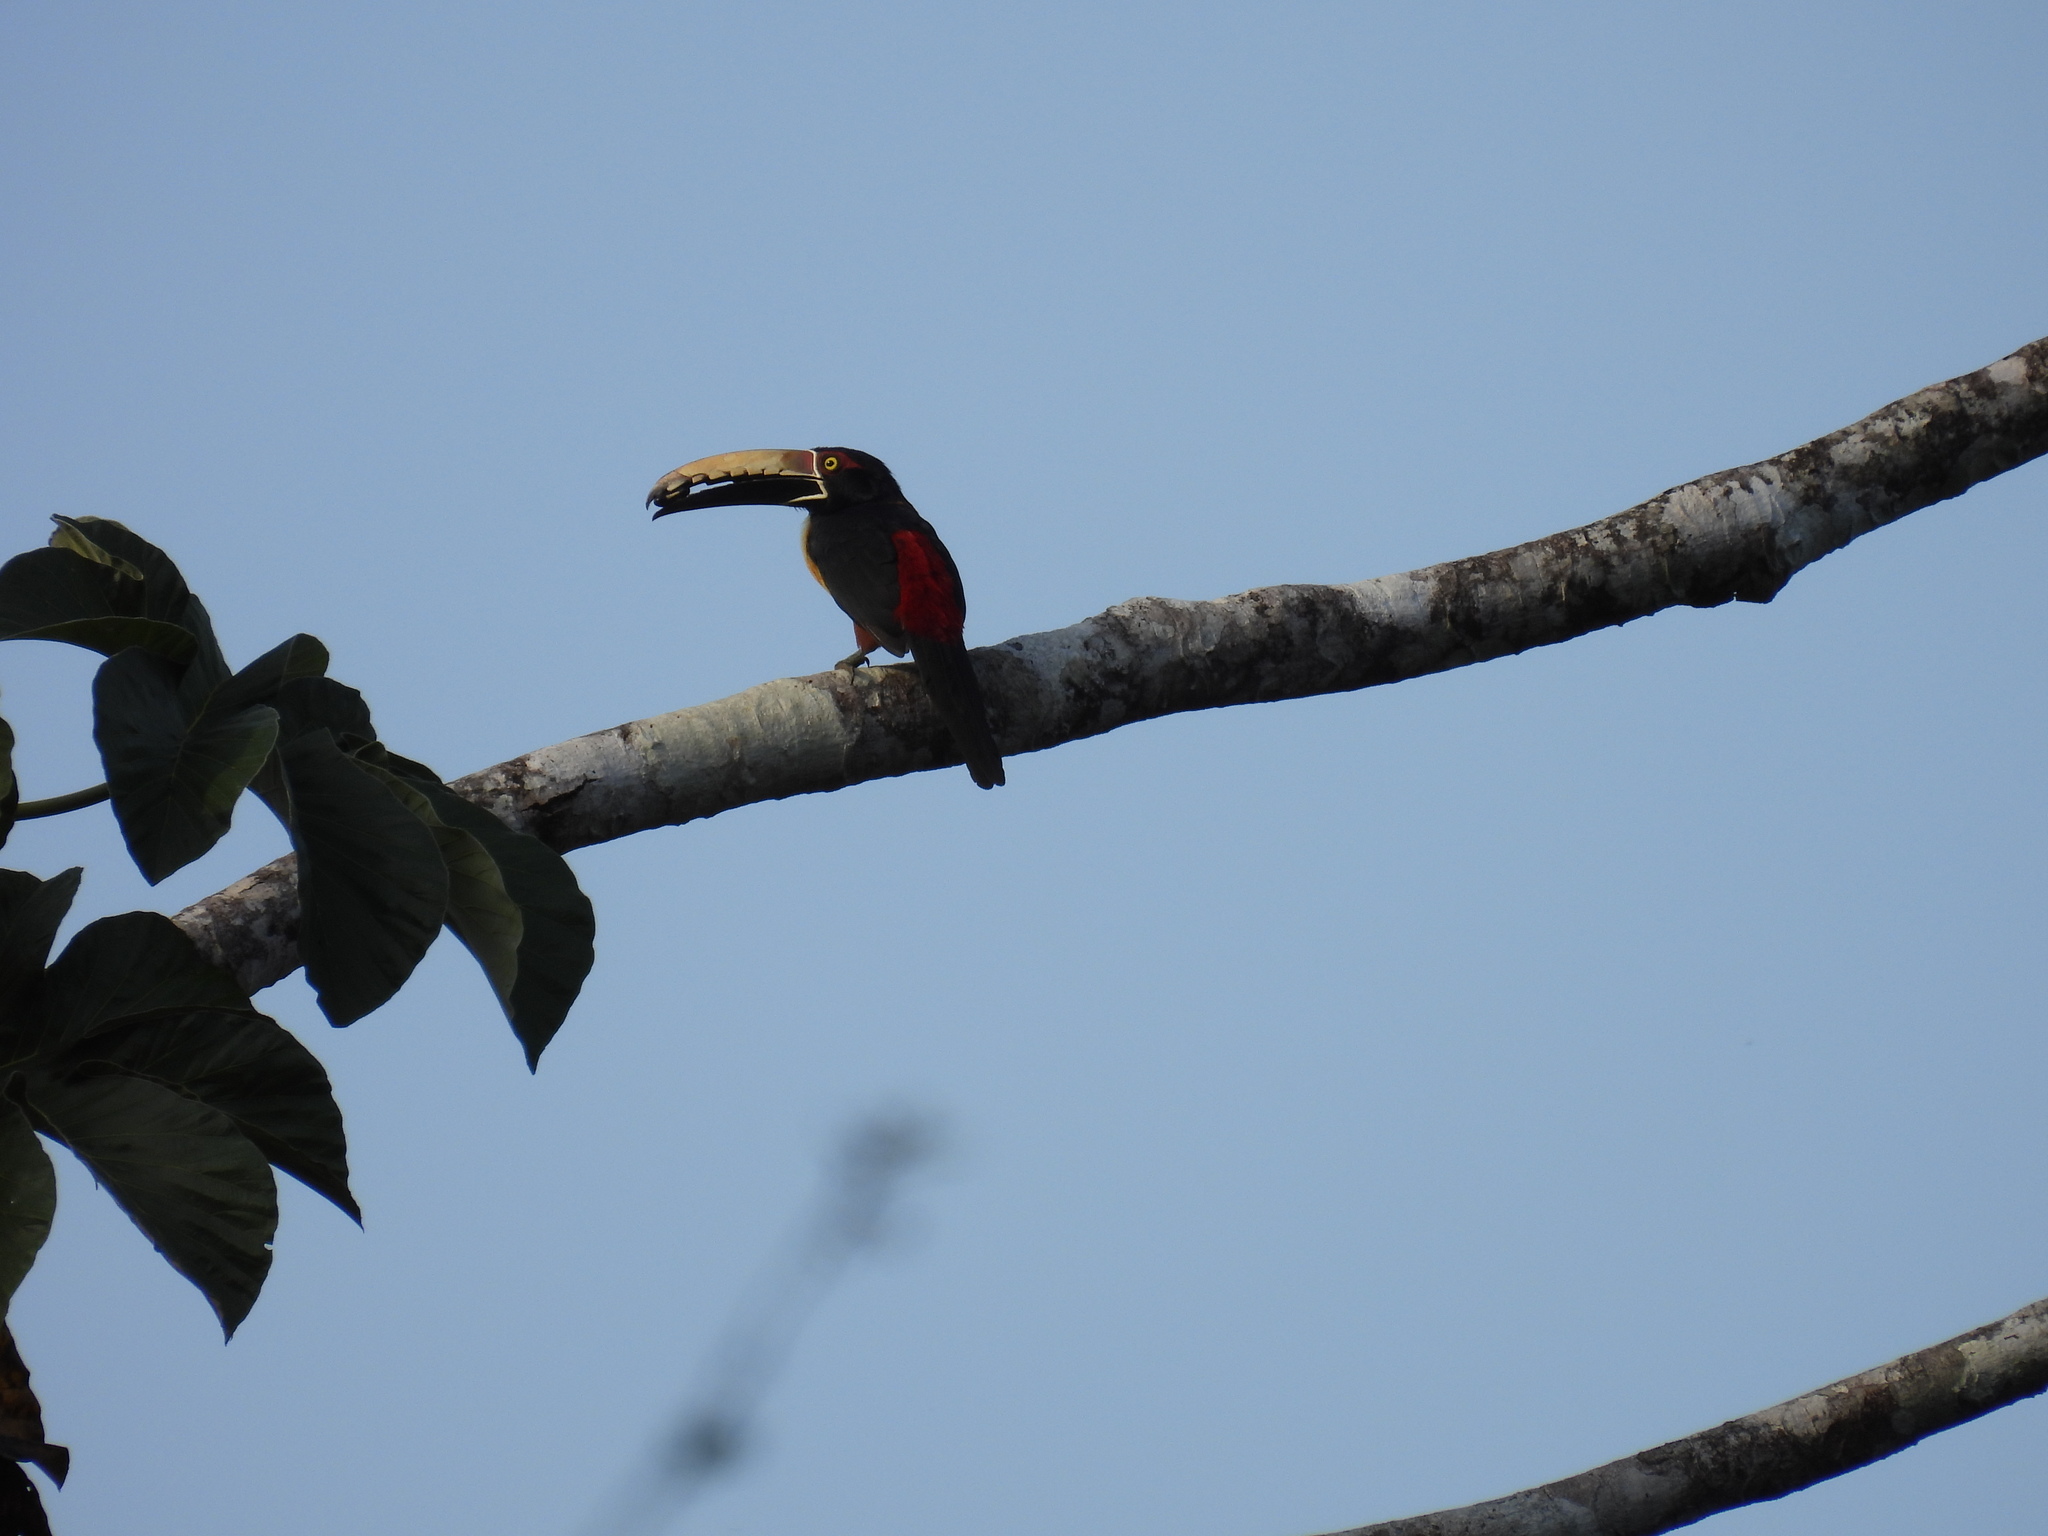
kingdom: Animalia
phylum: Chordata
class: Aves
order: Piciformes
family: Ramphastidae
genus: Pteroglossus
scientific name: Pteroglossus torquatus
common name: Collared aracari
